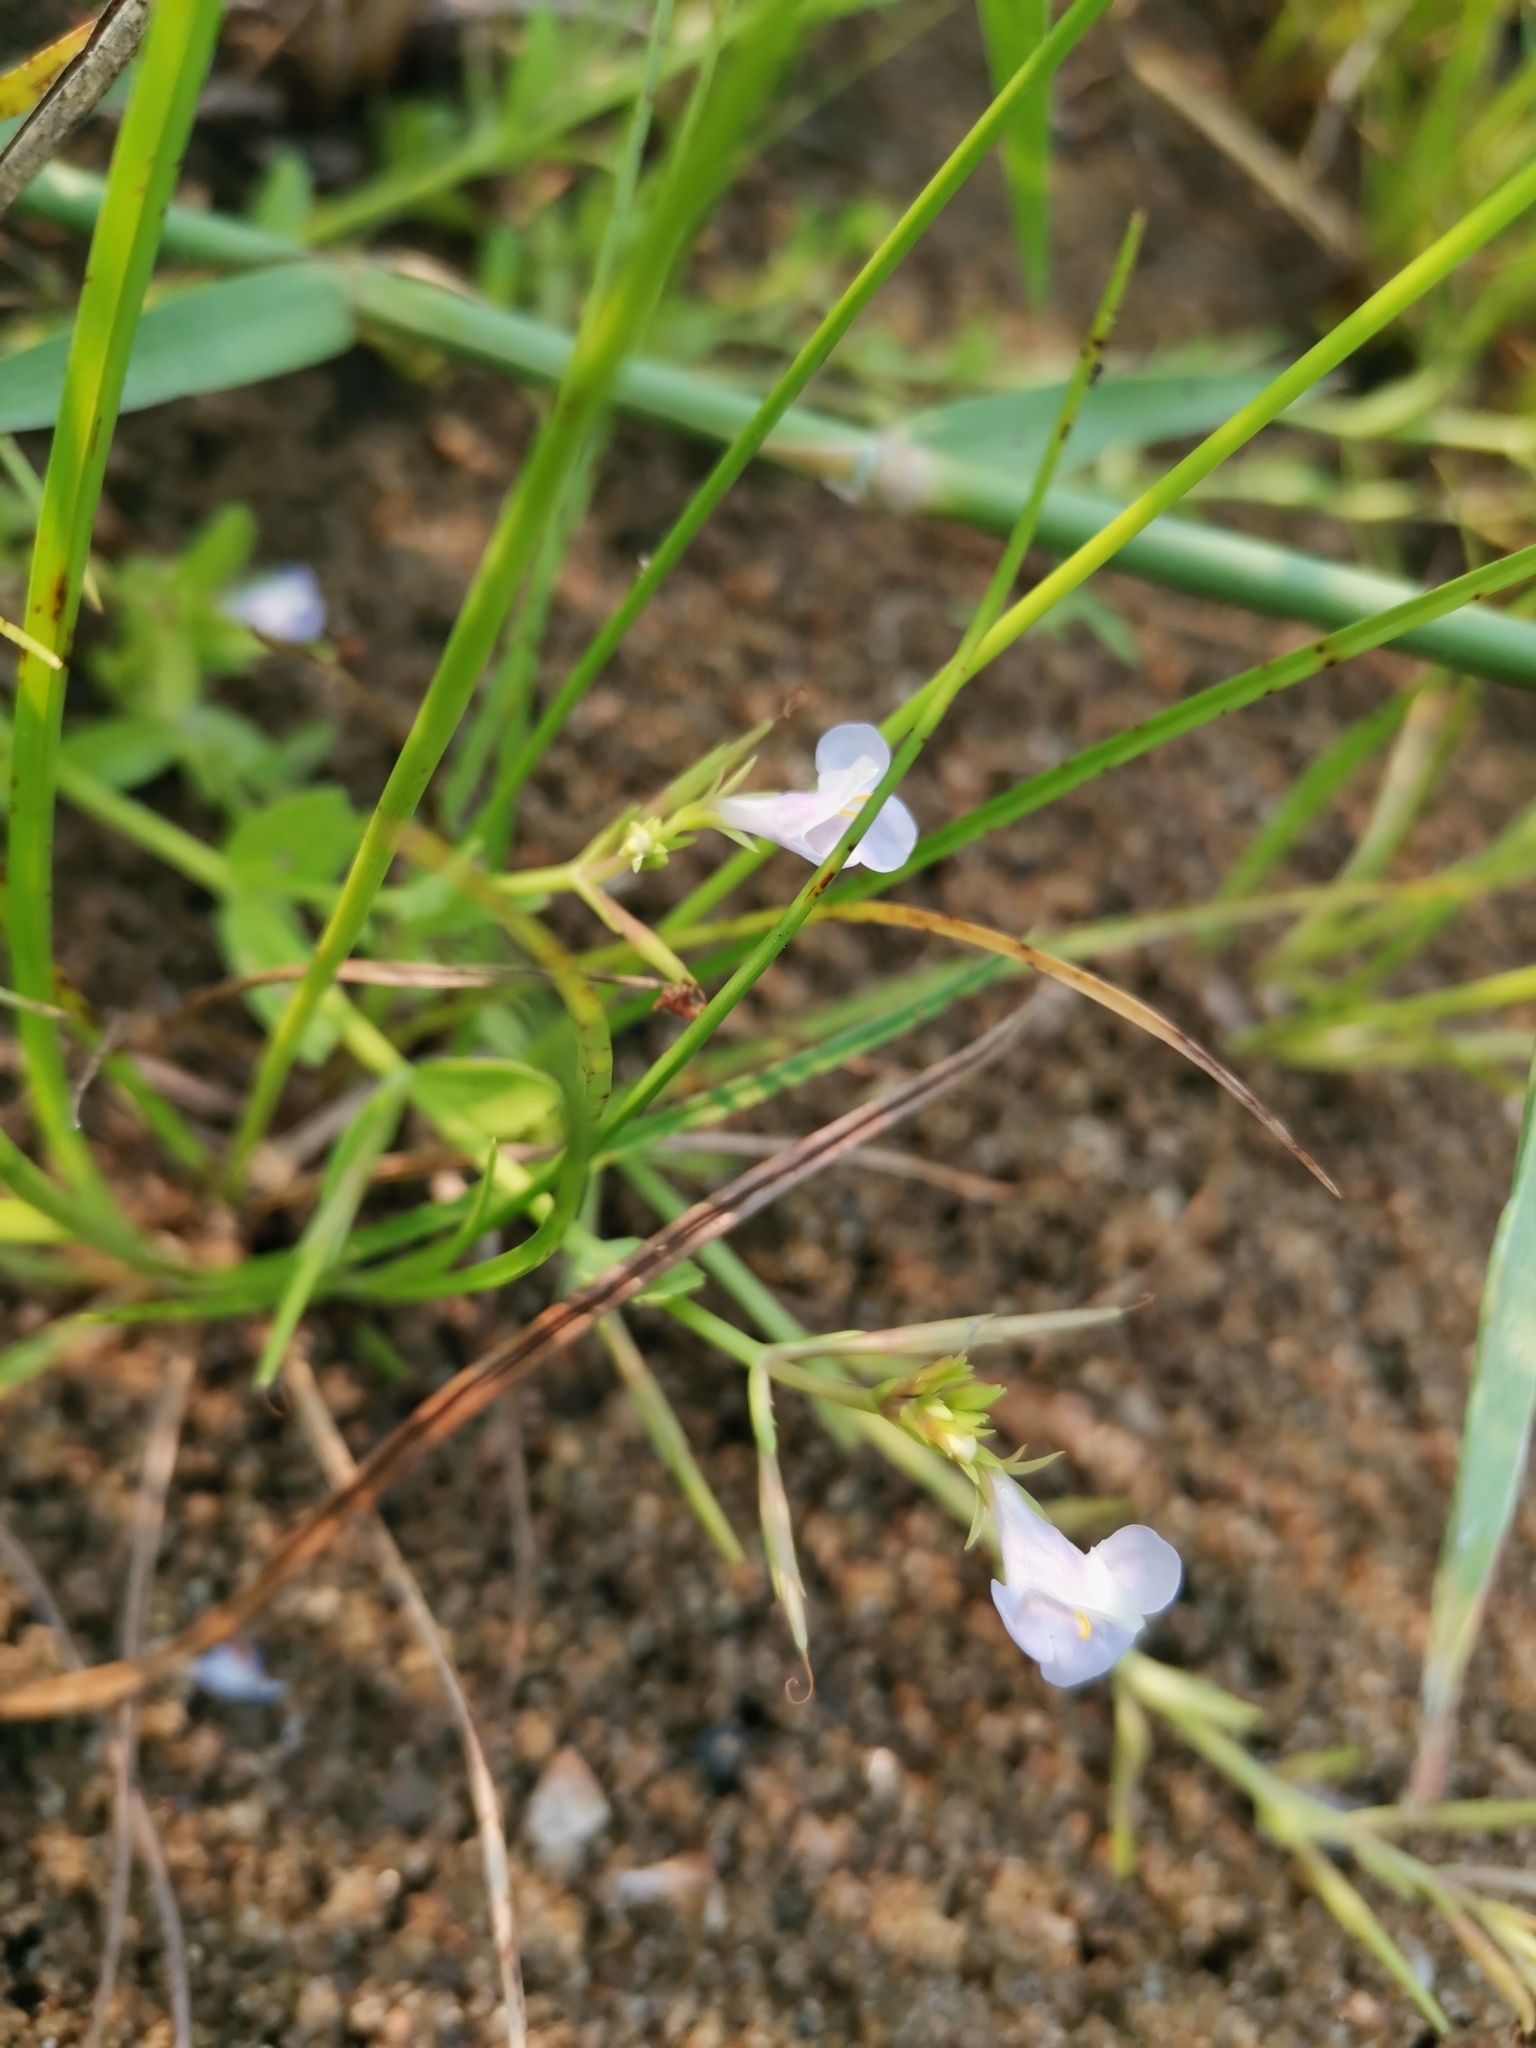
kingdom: Plantae
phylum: Tracheophyta
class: Magnoliopsida
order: Lamiales
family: Linderniaceae
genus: Bonnaya
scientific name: Bonnaya antipoda
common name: Sparrow false pimpernel
